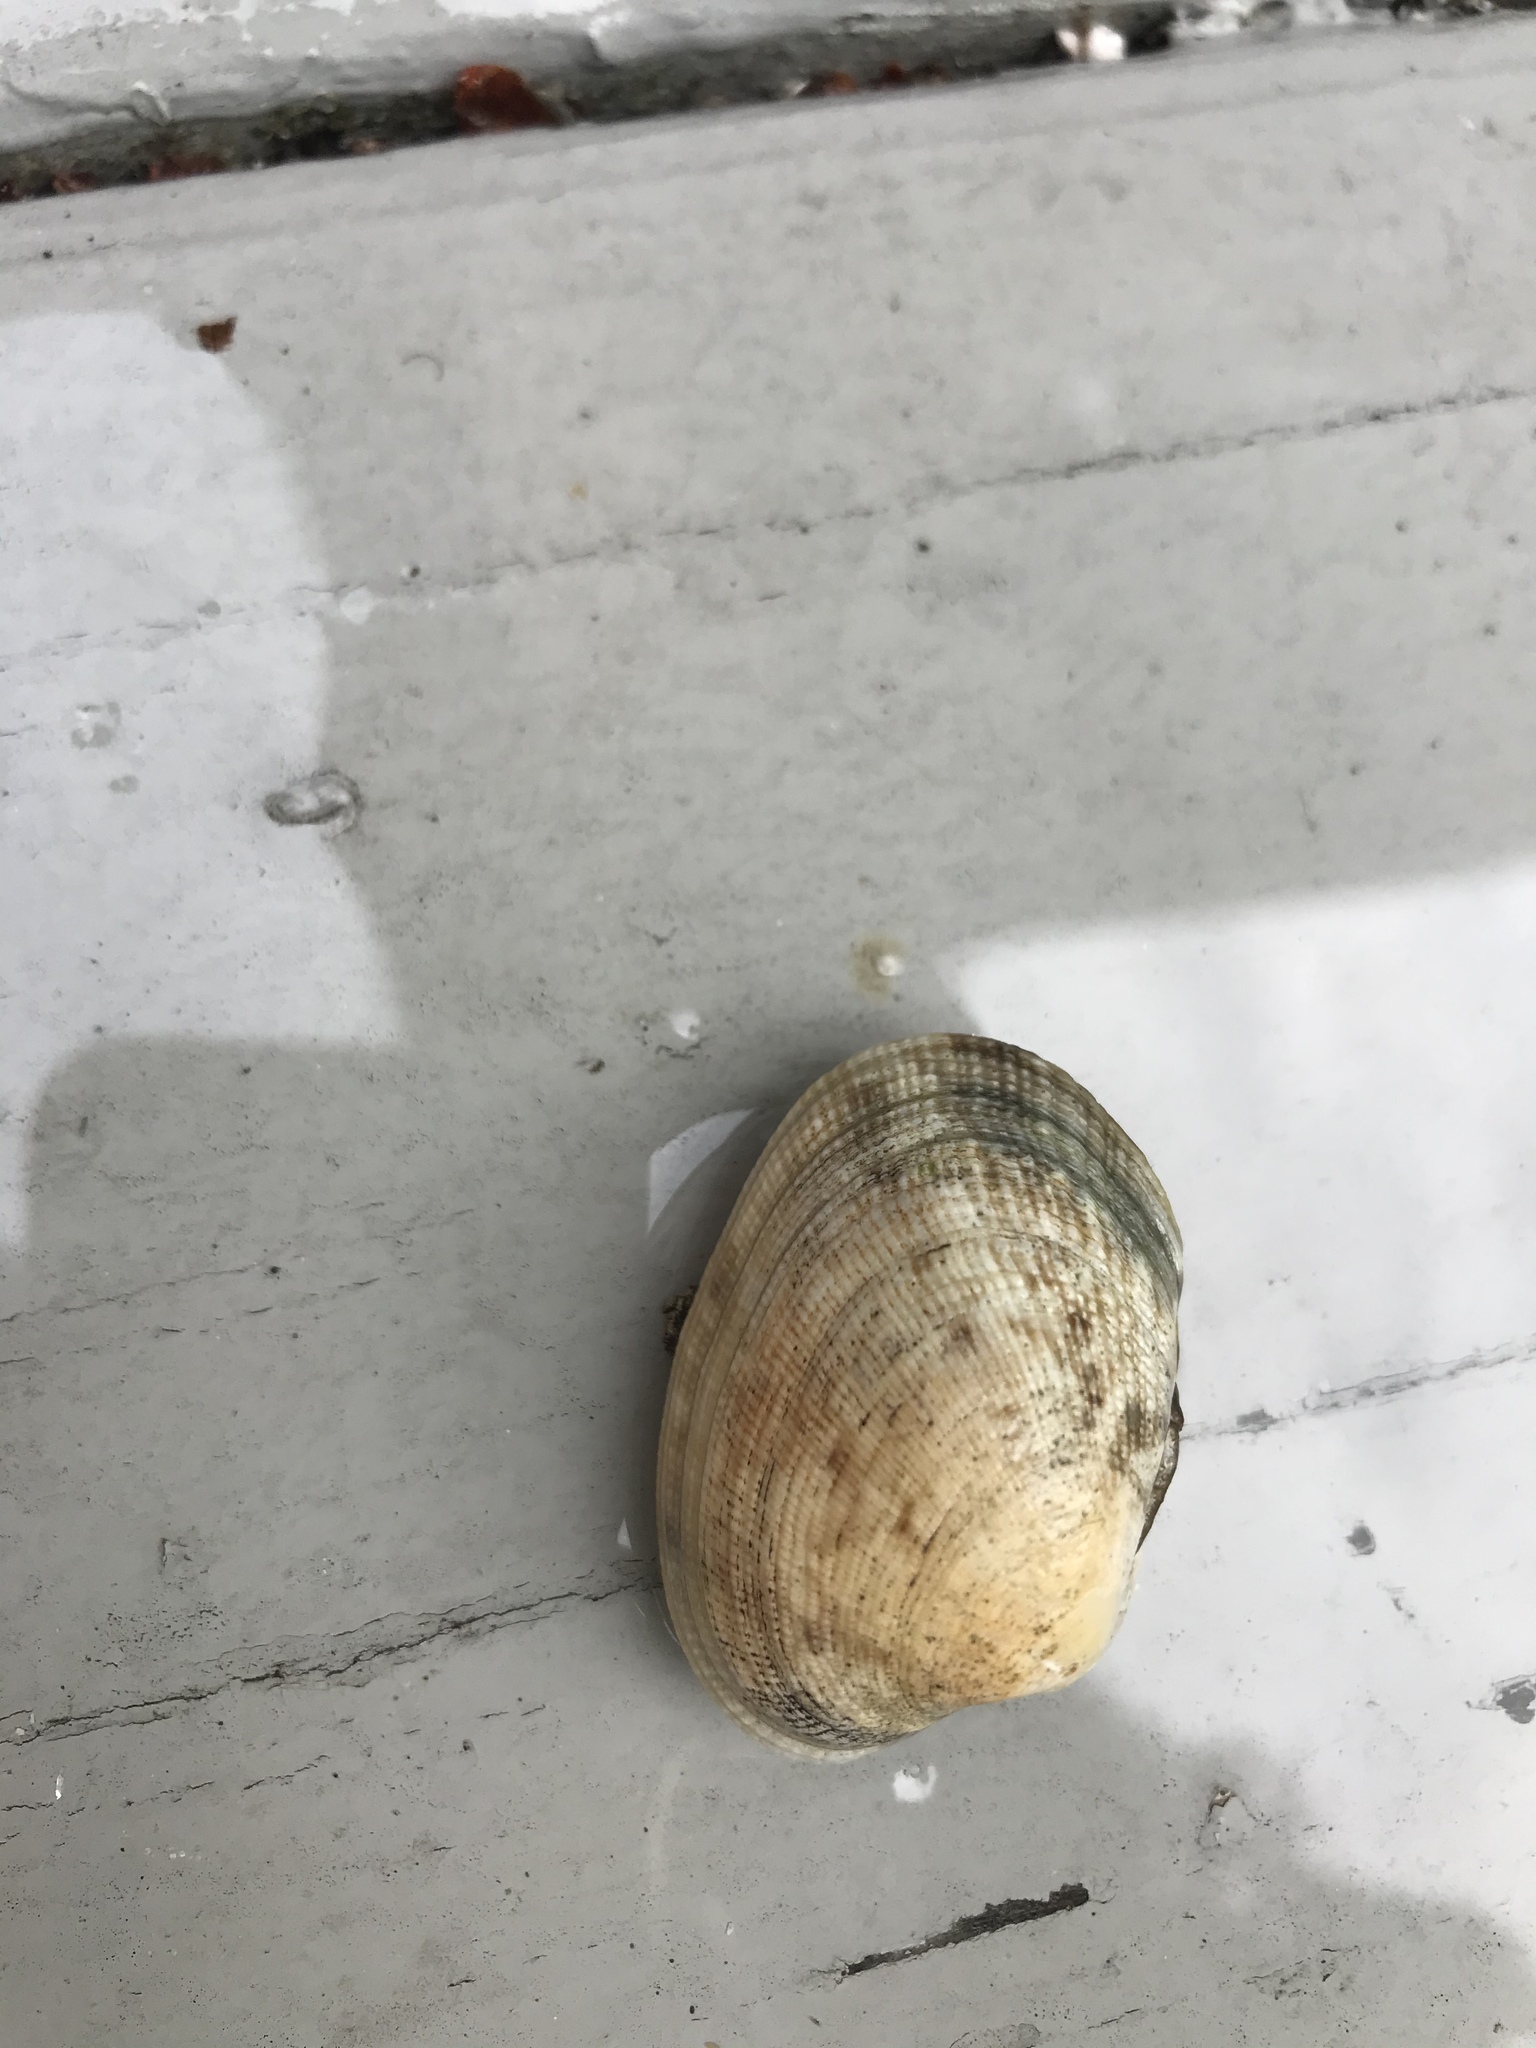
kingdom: Animalia
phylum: Mollusca
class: Bivalvia
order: Venerida
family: Veneridae
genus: Ruditapes
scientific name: Ruditapes philippinarum
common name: Manila clam
